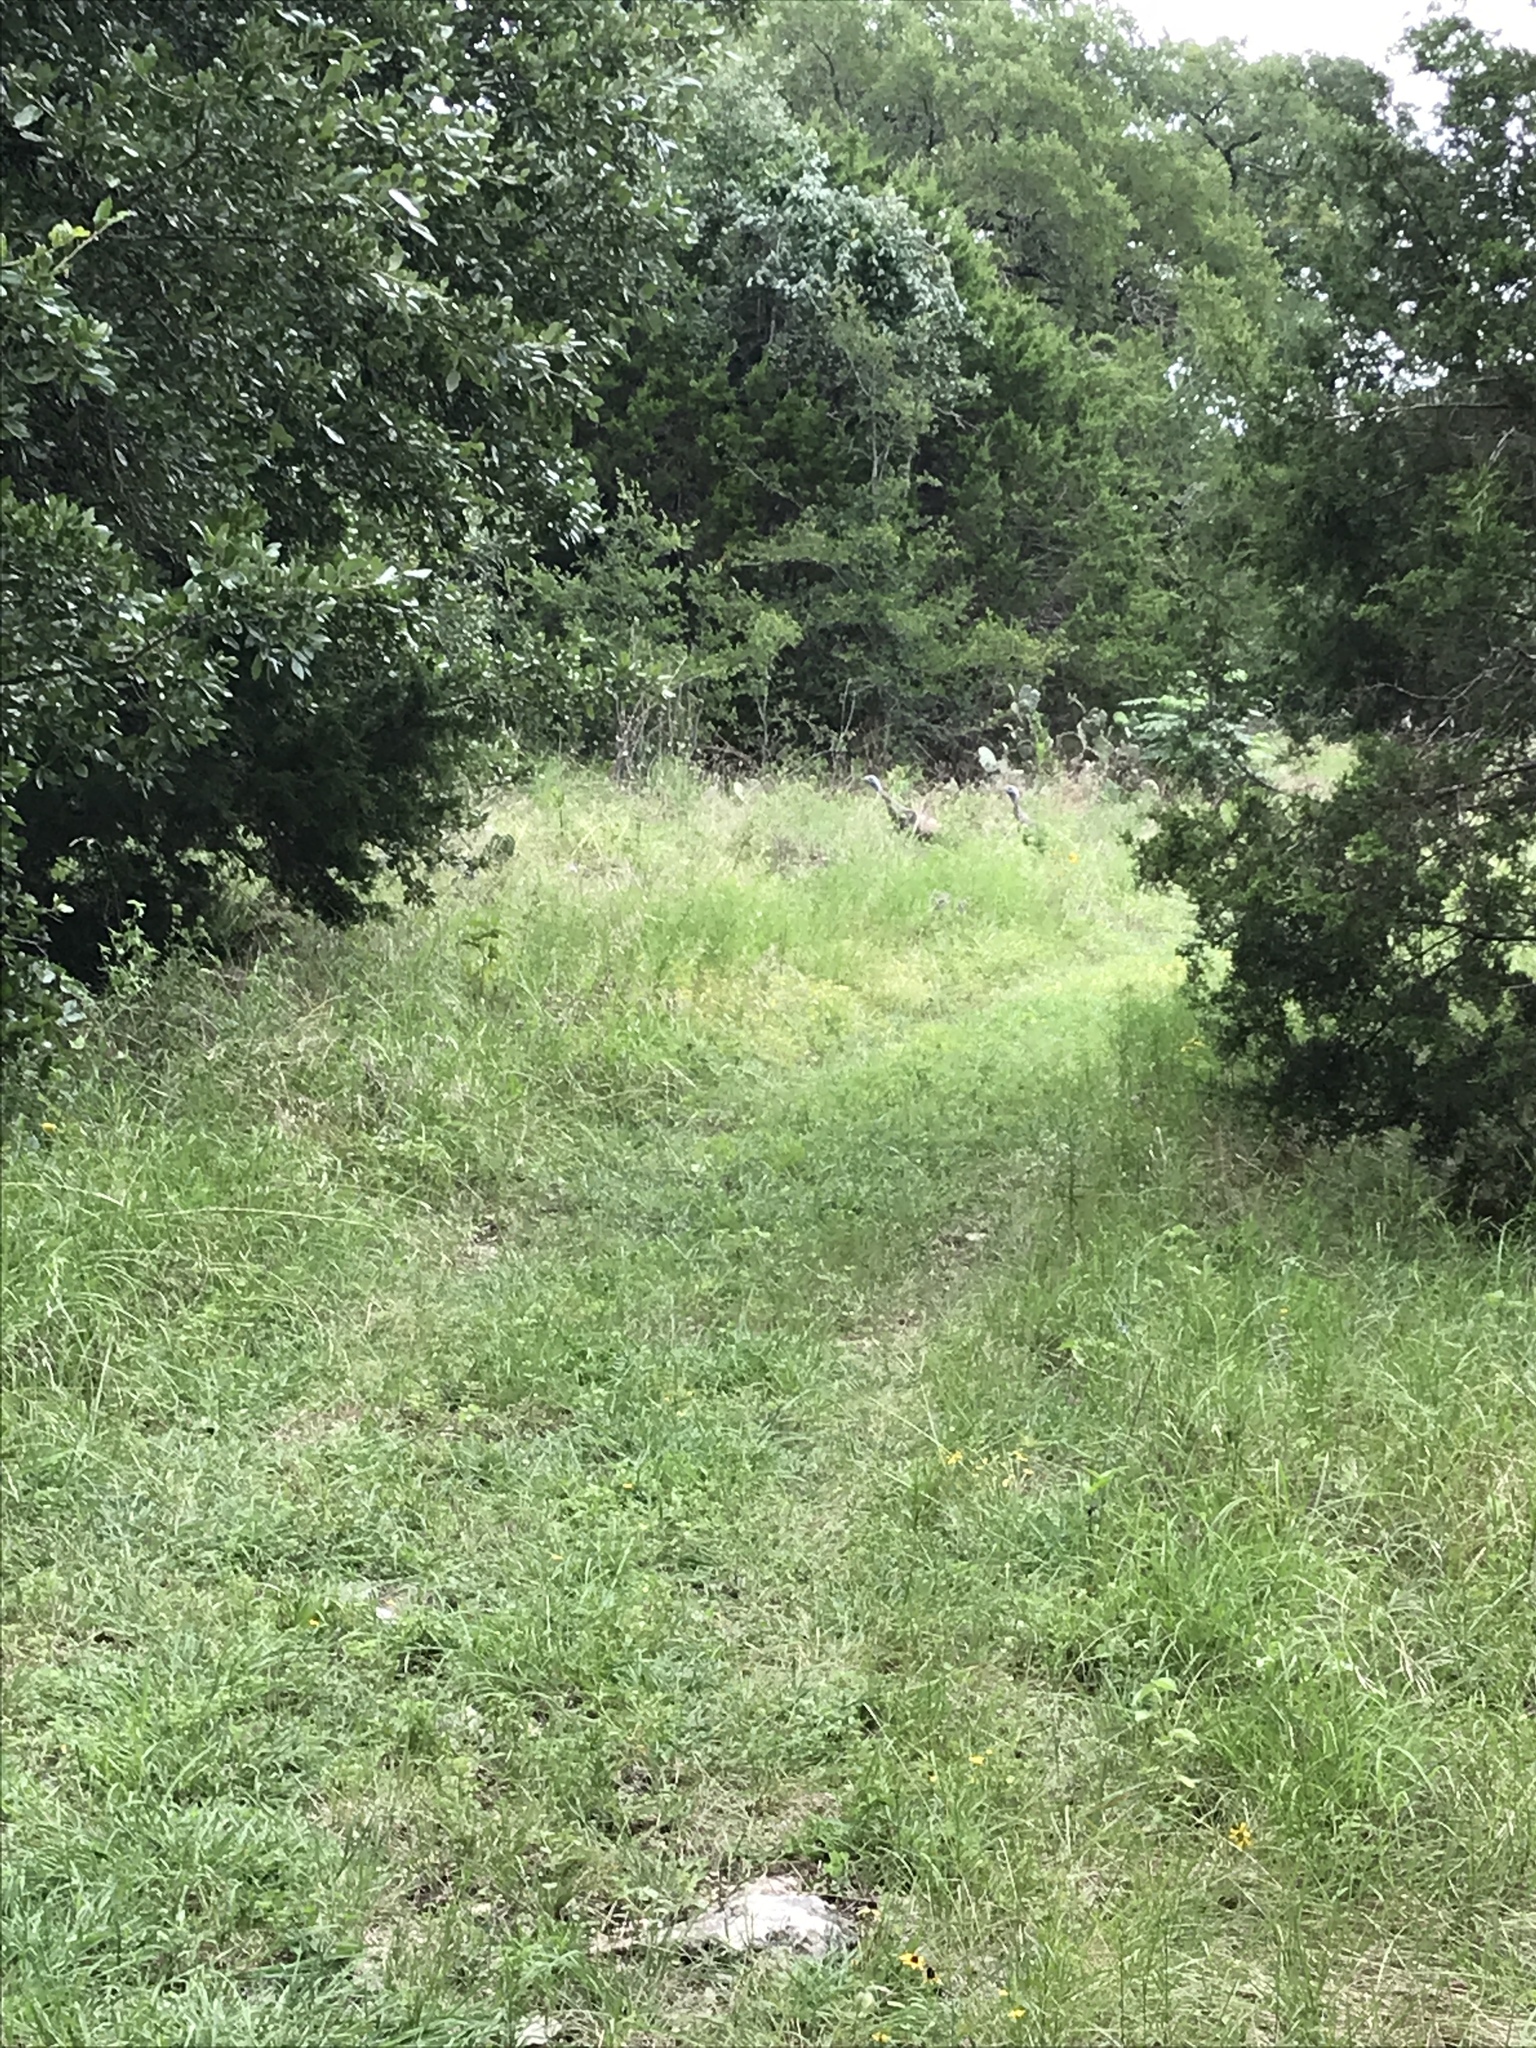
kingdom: Animalia
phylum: Chordata
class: Aves
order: Galliformes
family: Phasianidae
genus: Meleagris
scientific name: Meleagris gallopavo
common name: Wild turkey
